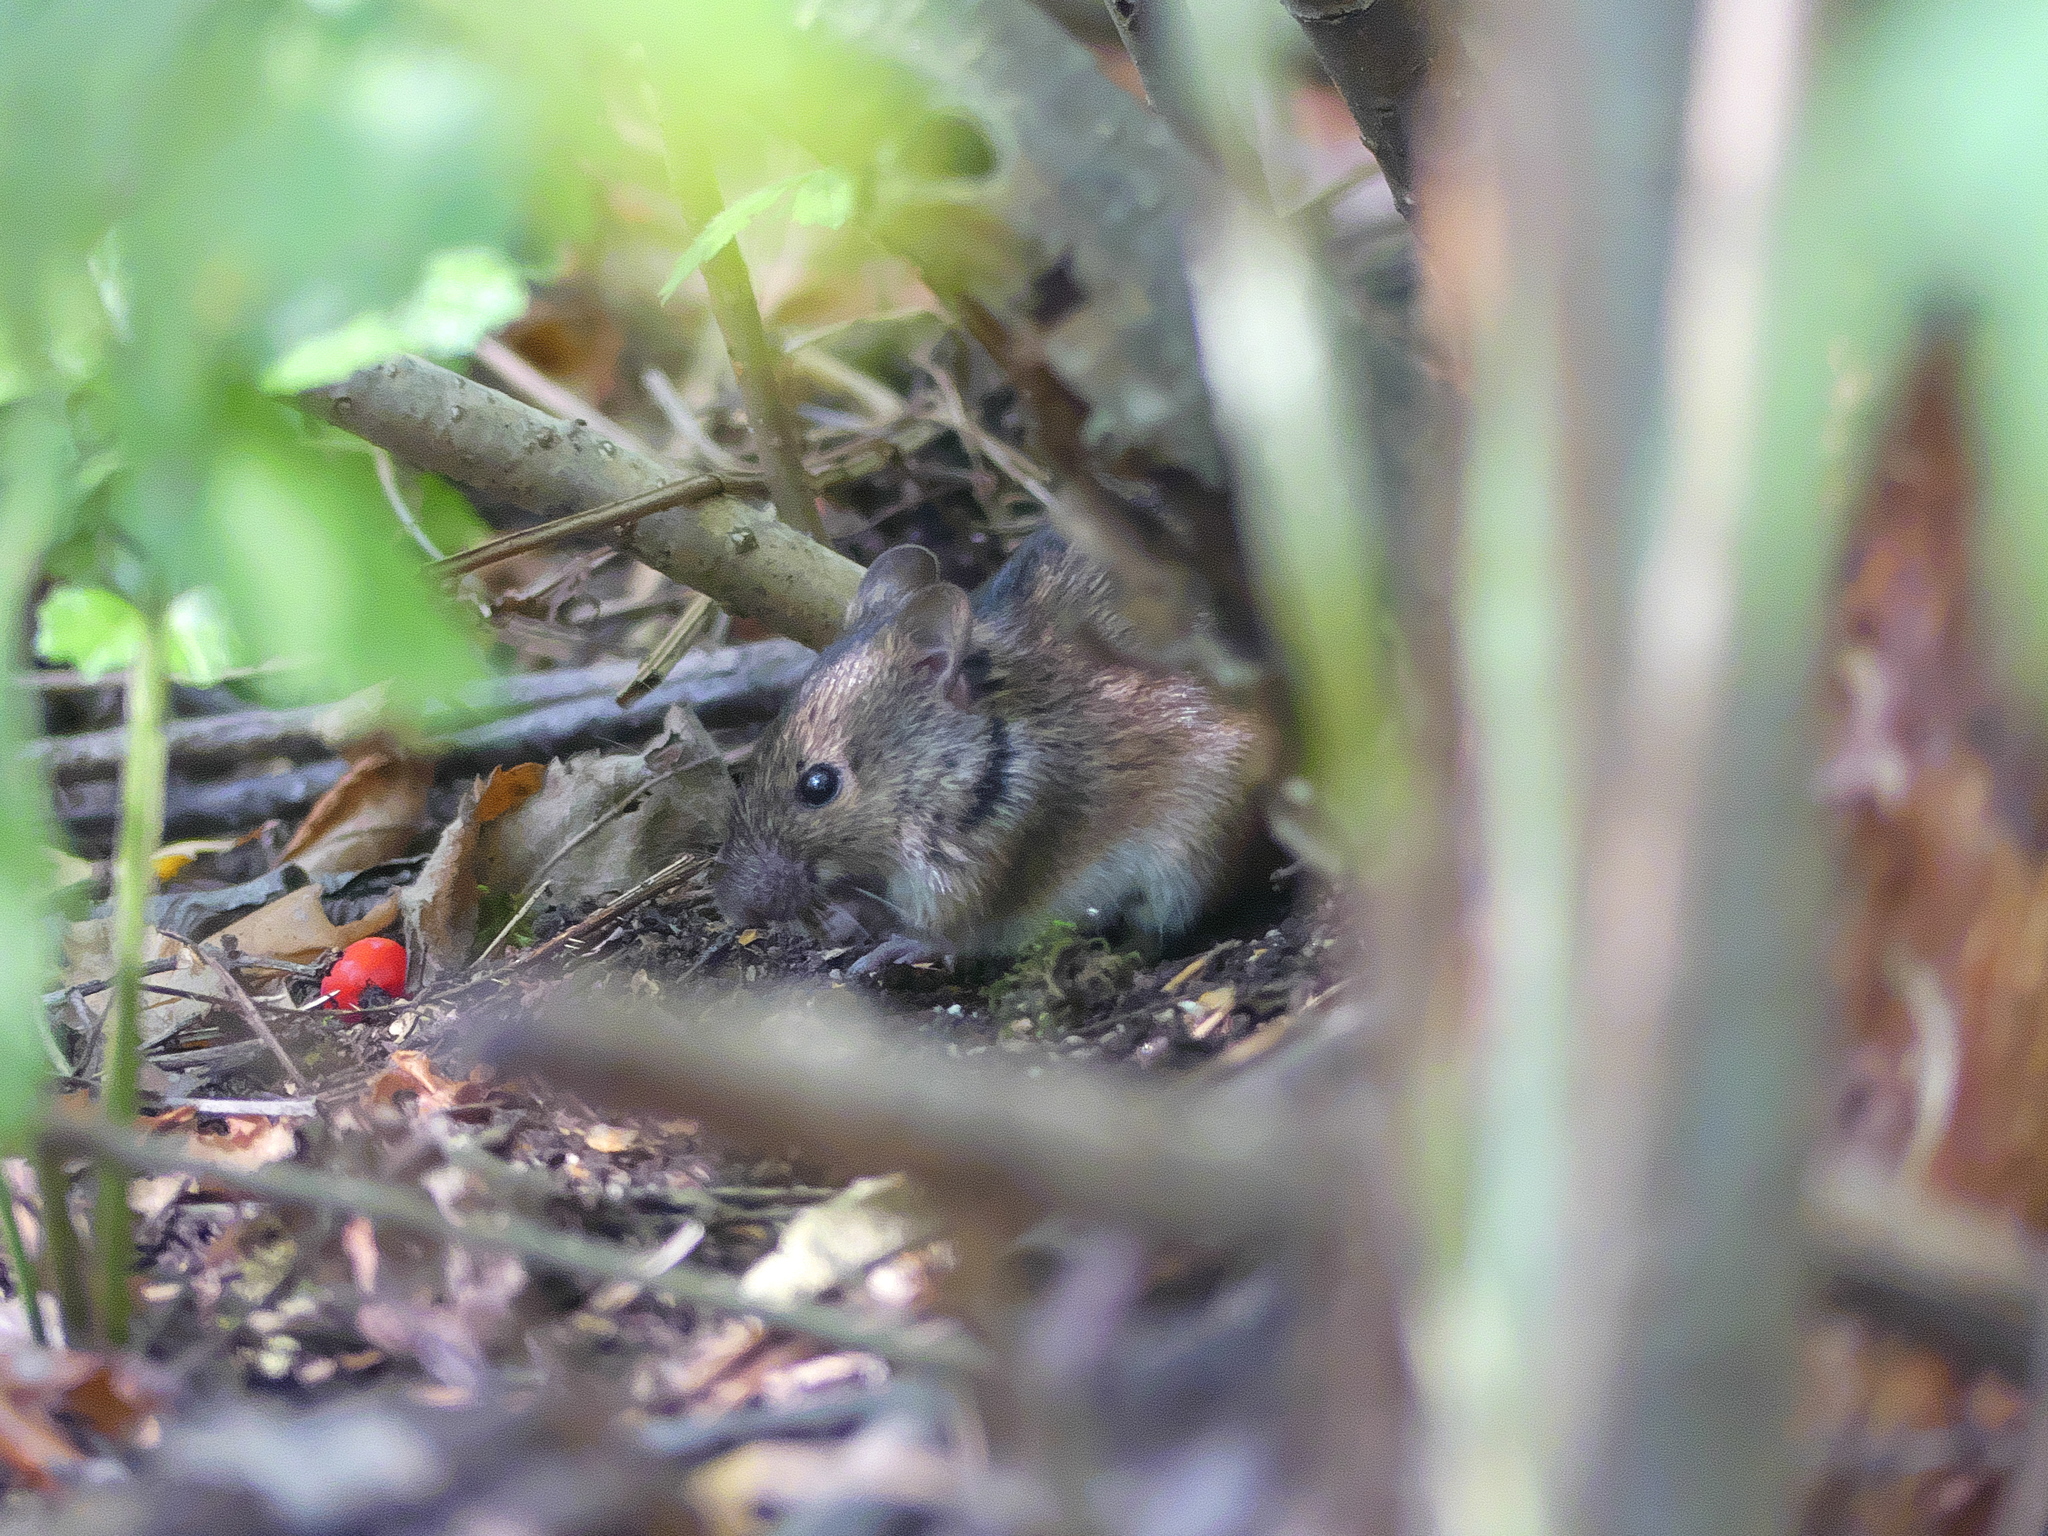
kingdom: Animalia
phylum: Chordata
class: Mammalia
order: Rodentia
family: Muridae
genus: Apodemus
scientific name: Apodemus agrarius
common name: Striped field mouse
